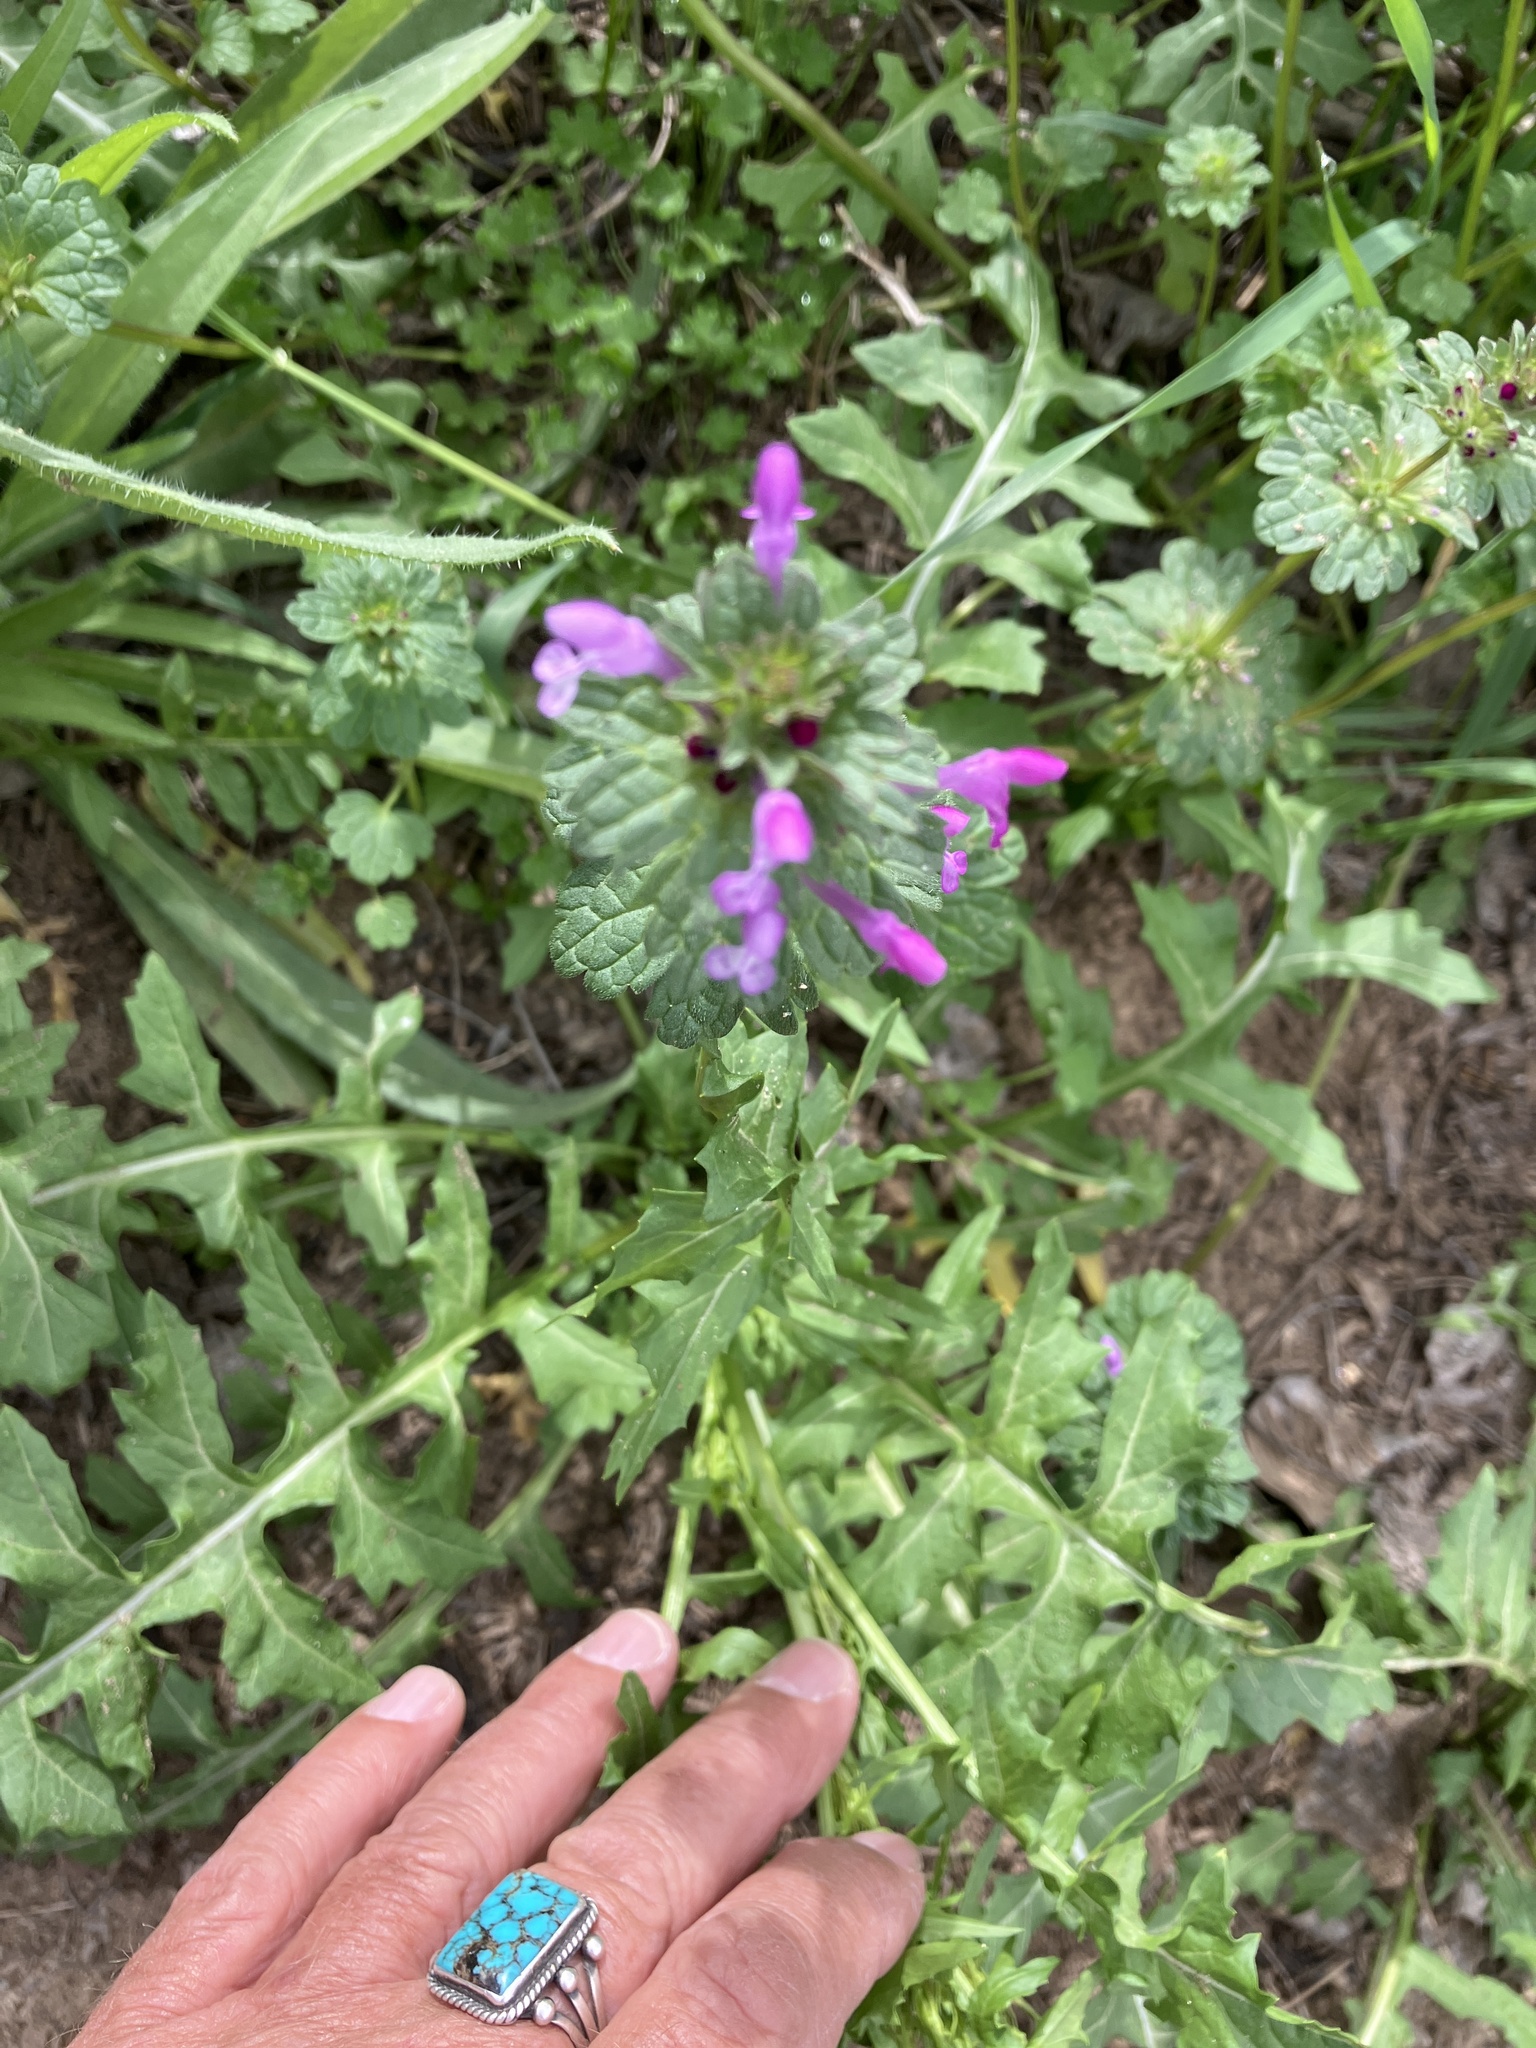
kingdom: Plantae
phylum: Tracheophyta
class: Magnoliopsida
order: Lamiales
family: Lamiaceae
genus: Lamium
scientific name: Lamium amplexicaule
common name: Henbit dead-nettle
